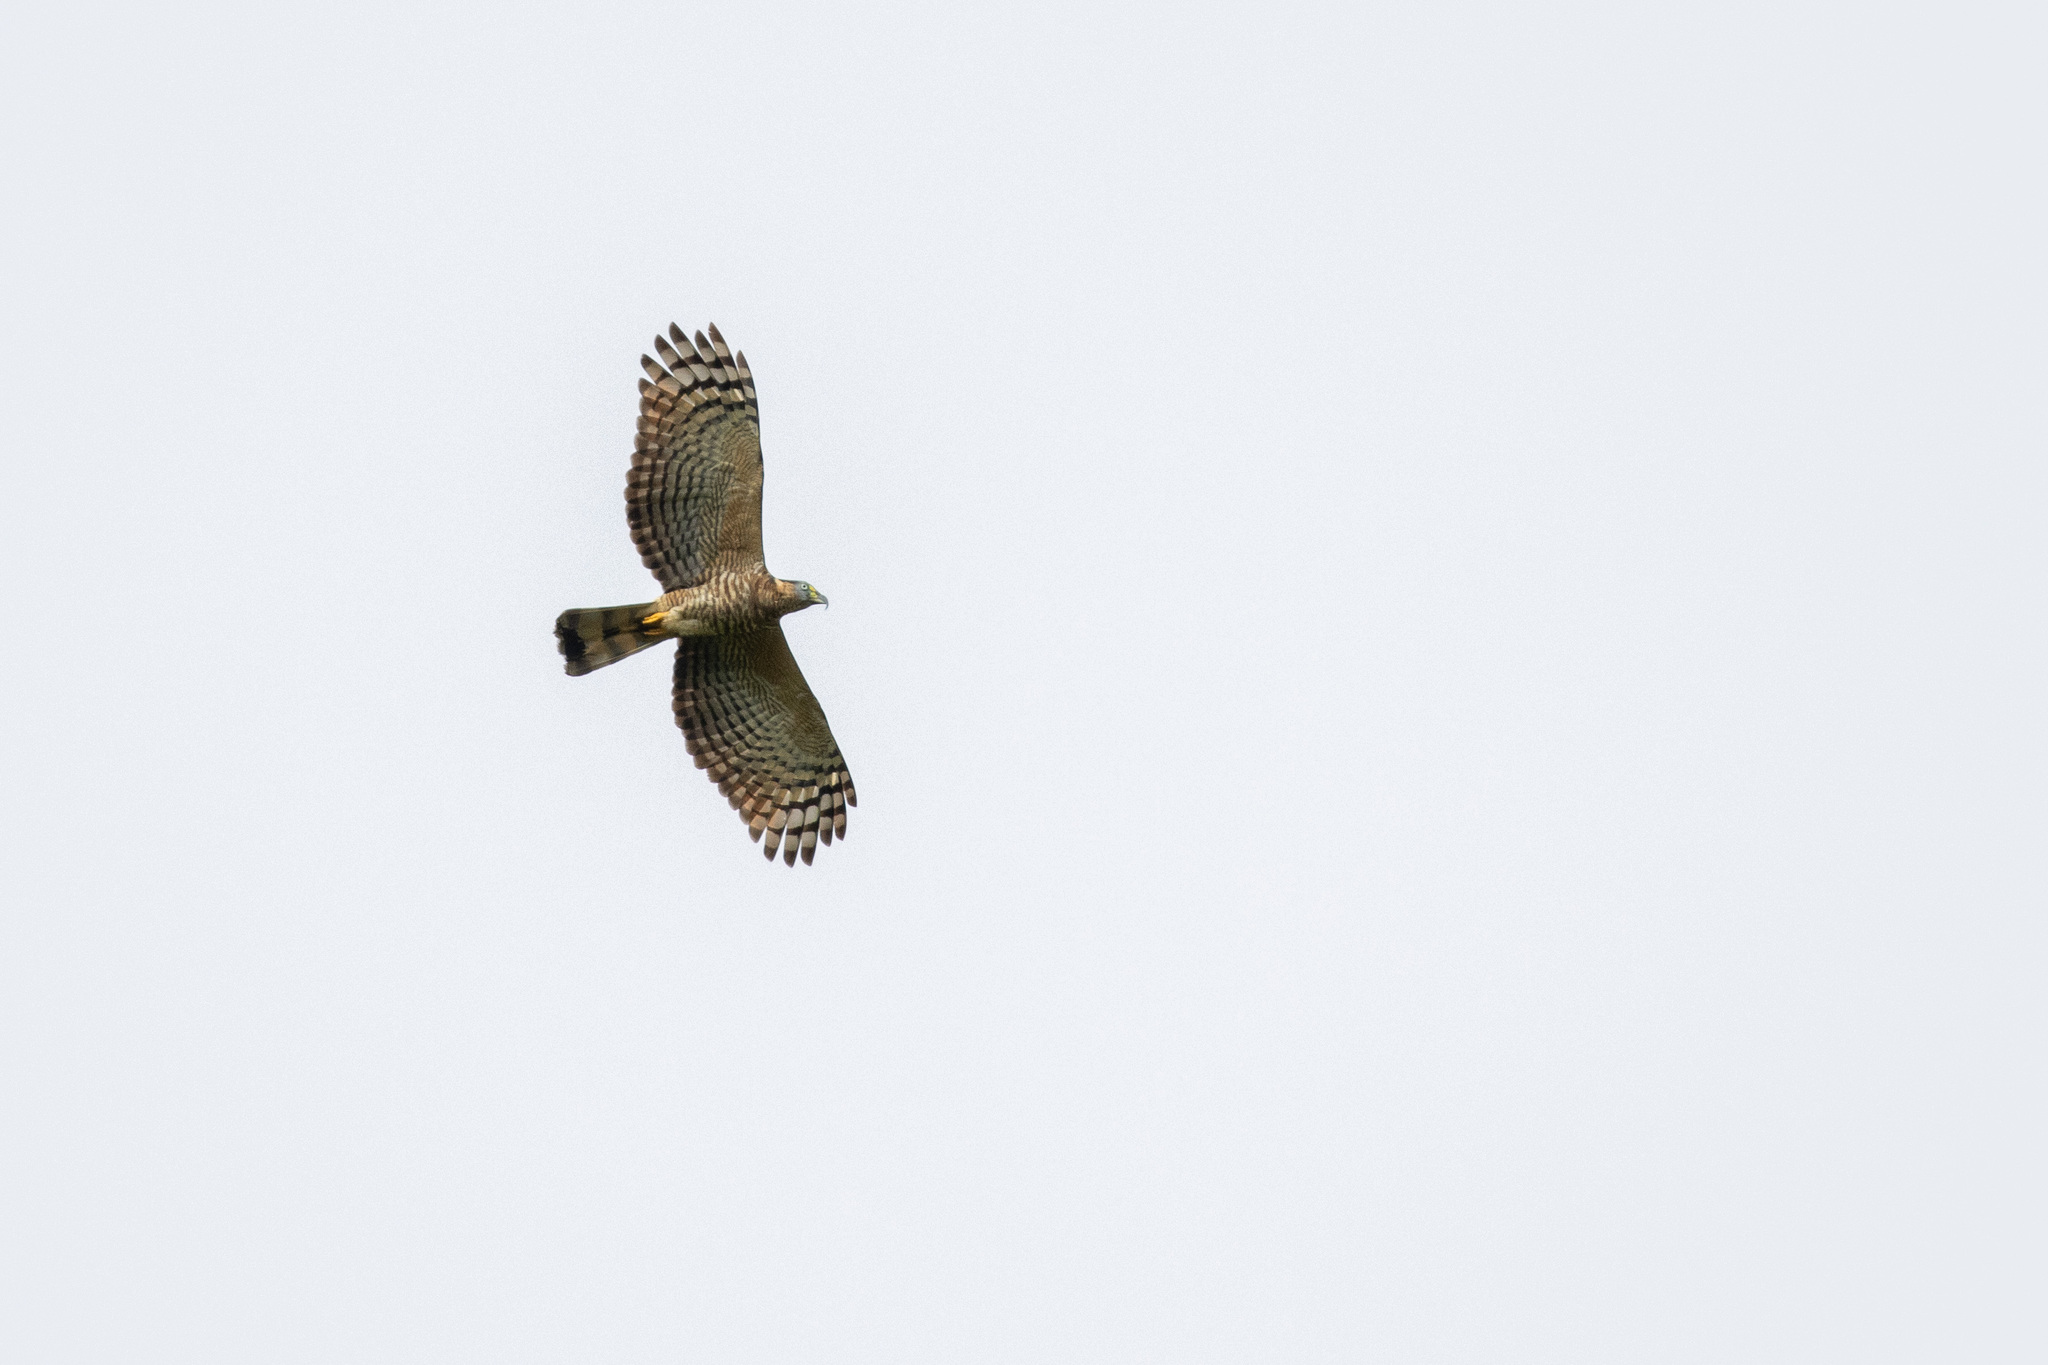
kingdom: Animalia
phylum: Chordata
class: Aves
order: Accipitriformes
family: Accipitridae
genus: Chondrohierax
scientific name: Chondrohierax uncinatus
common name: Hook-billed kite
